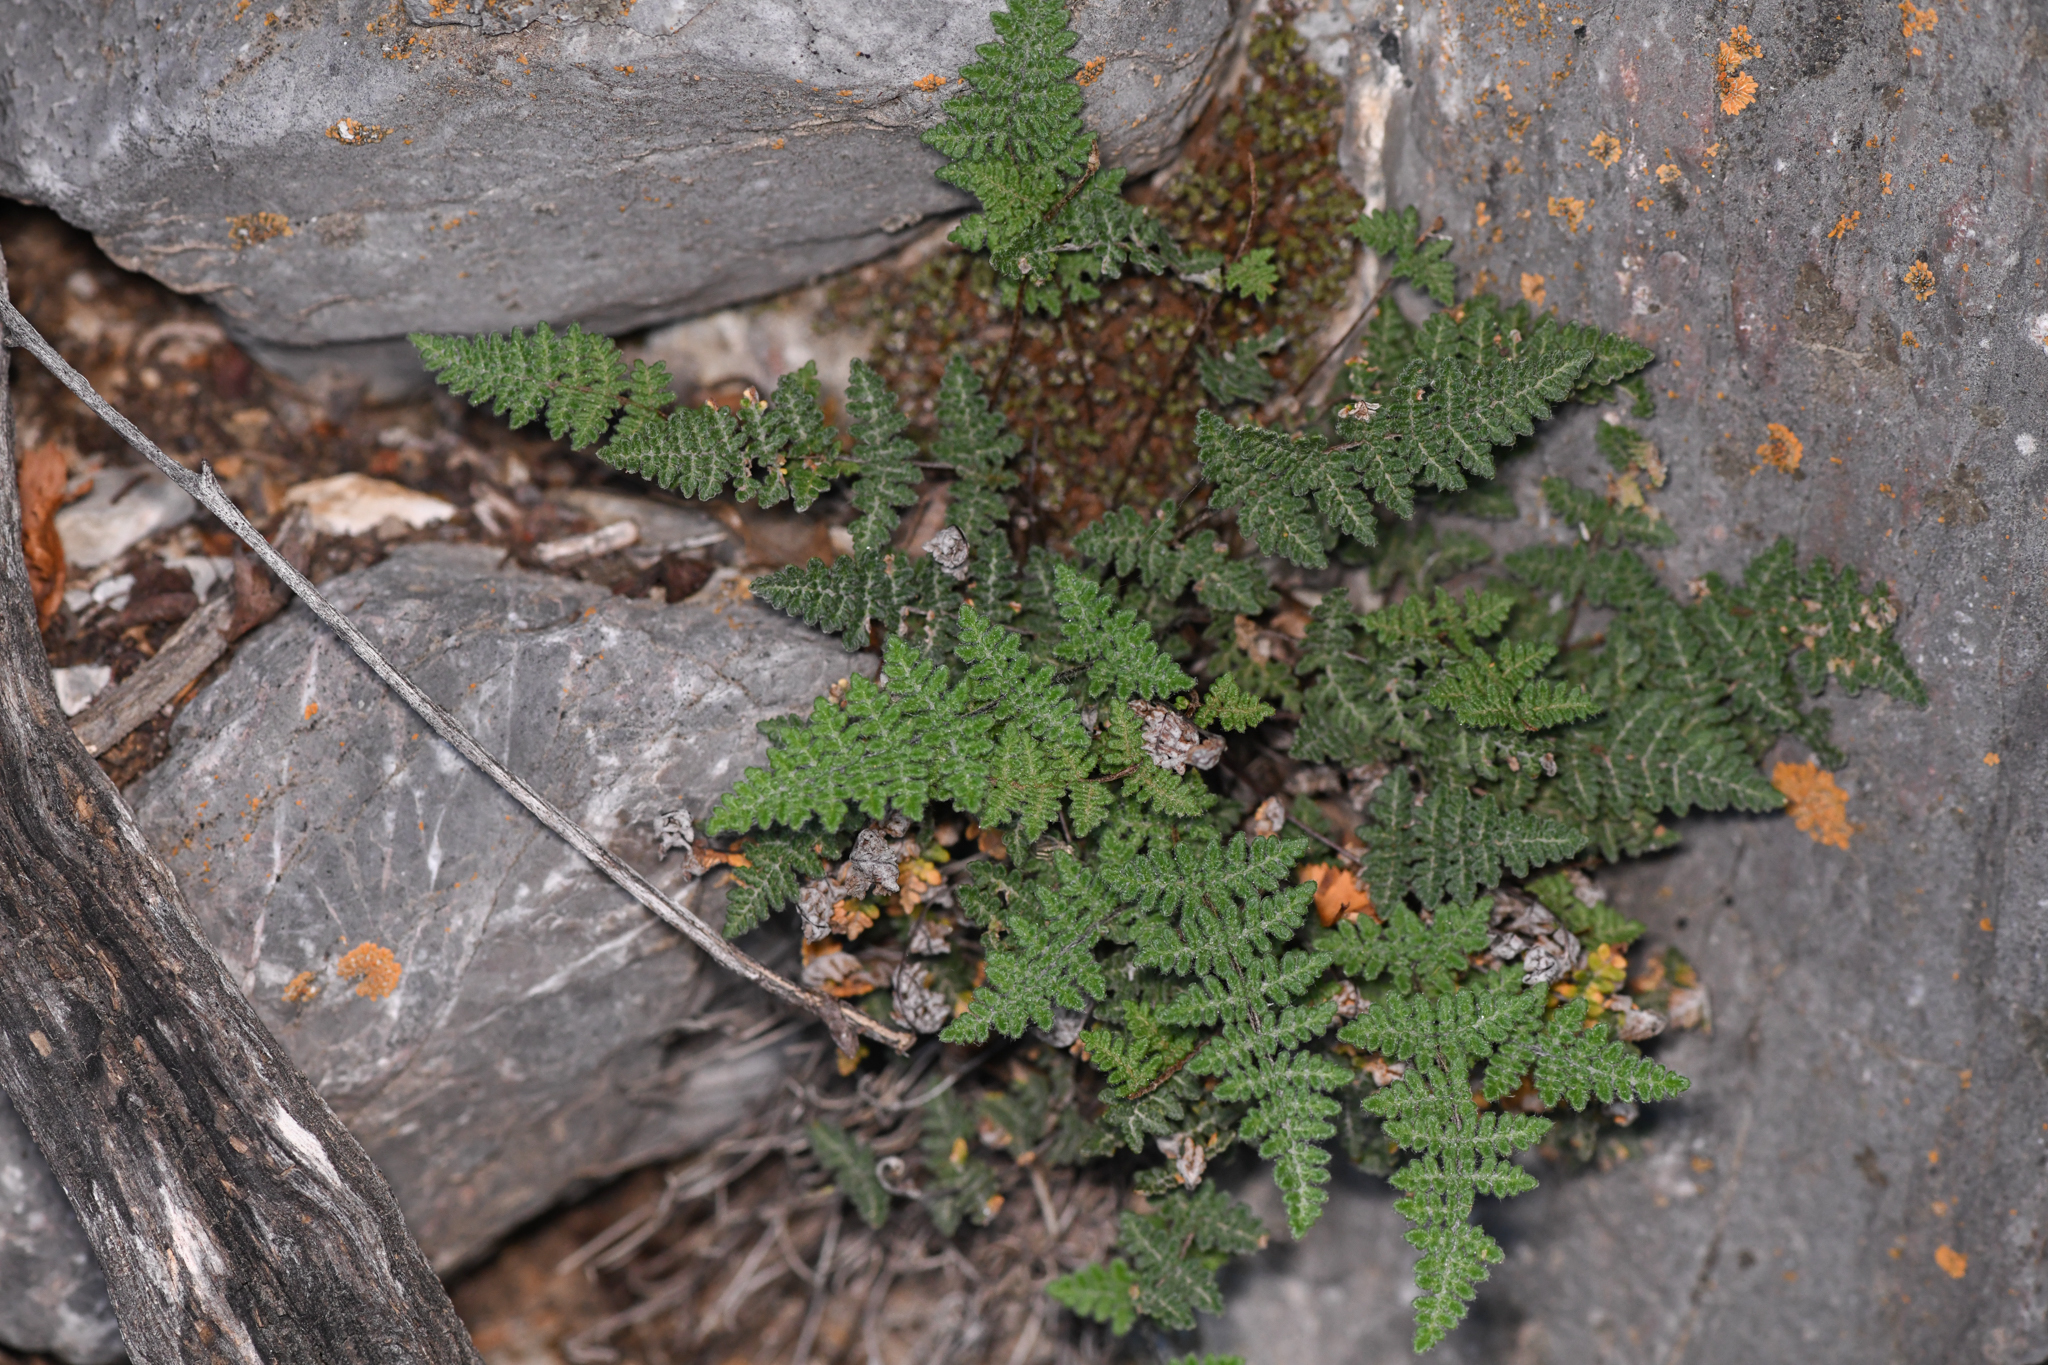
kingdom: Plantae
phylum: Tracheophyta
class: Polypodiopsida
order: Polypodiales
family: Pteridaceae
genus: Myriopteris
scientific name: Myriopteris gracilis
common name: Fee's lip fern
